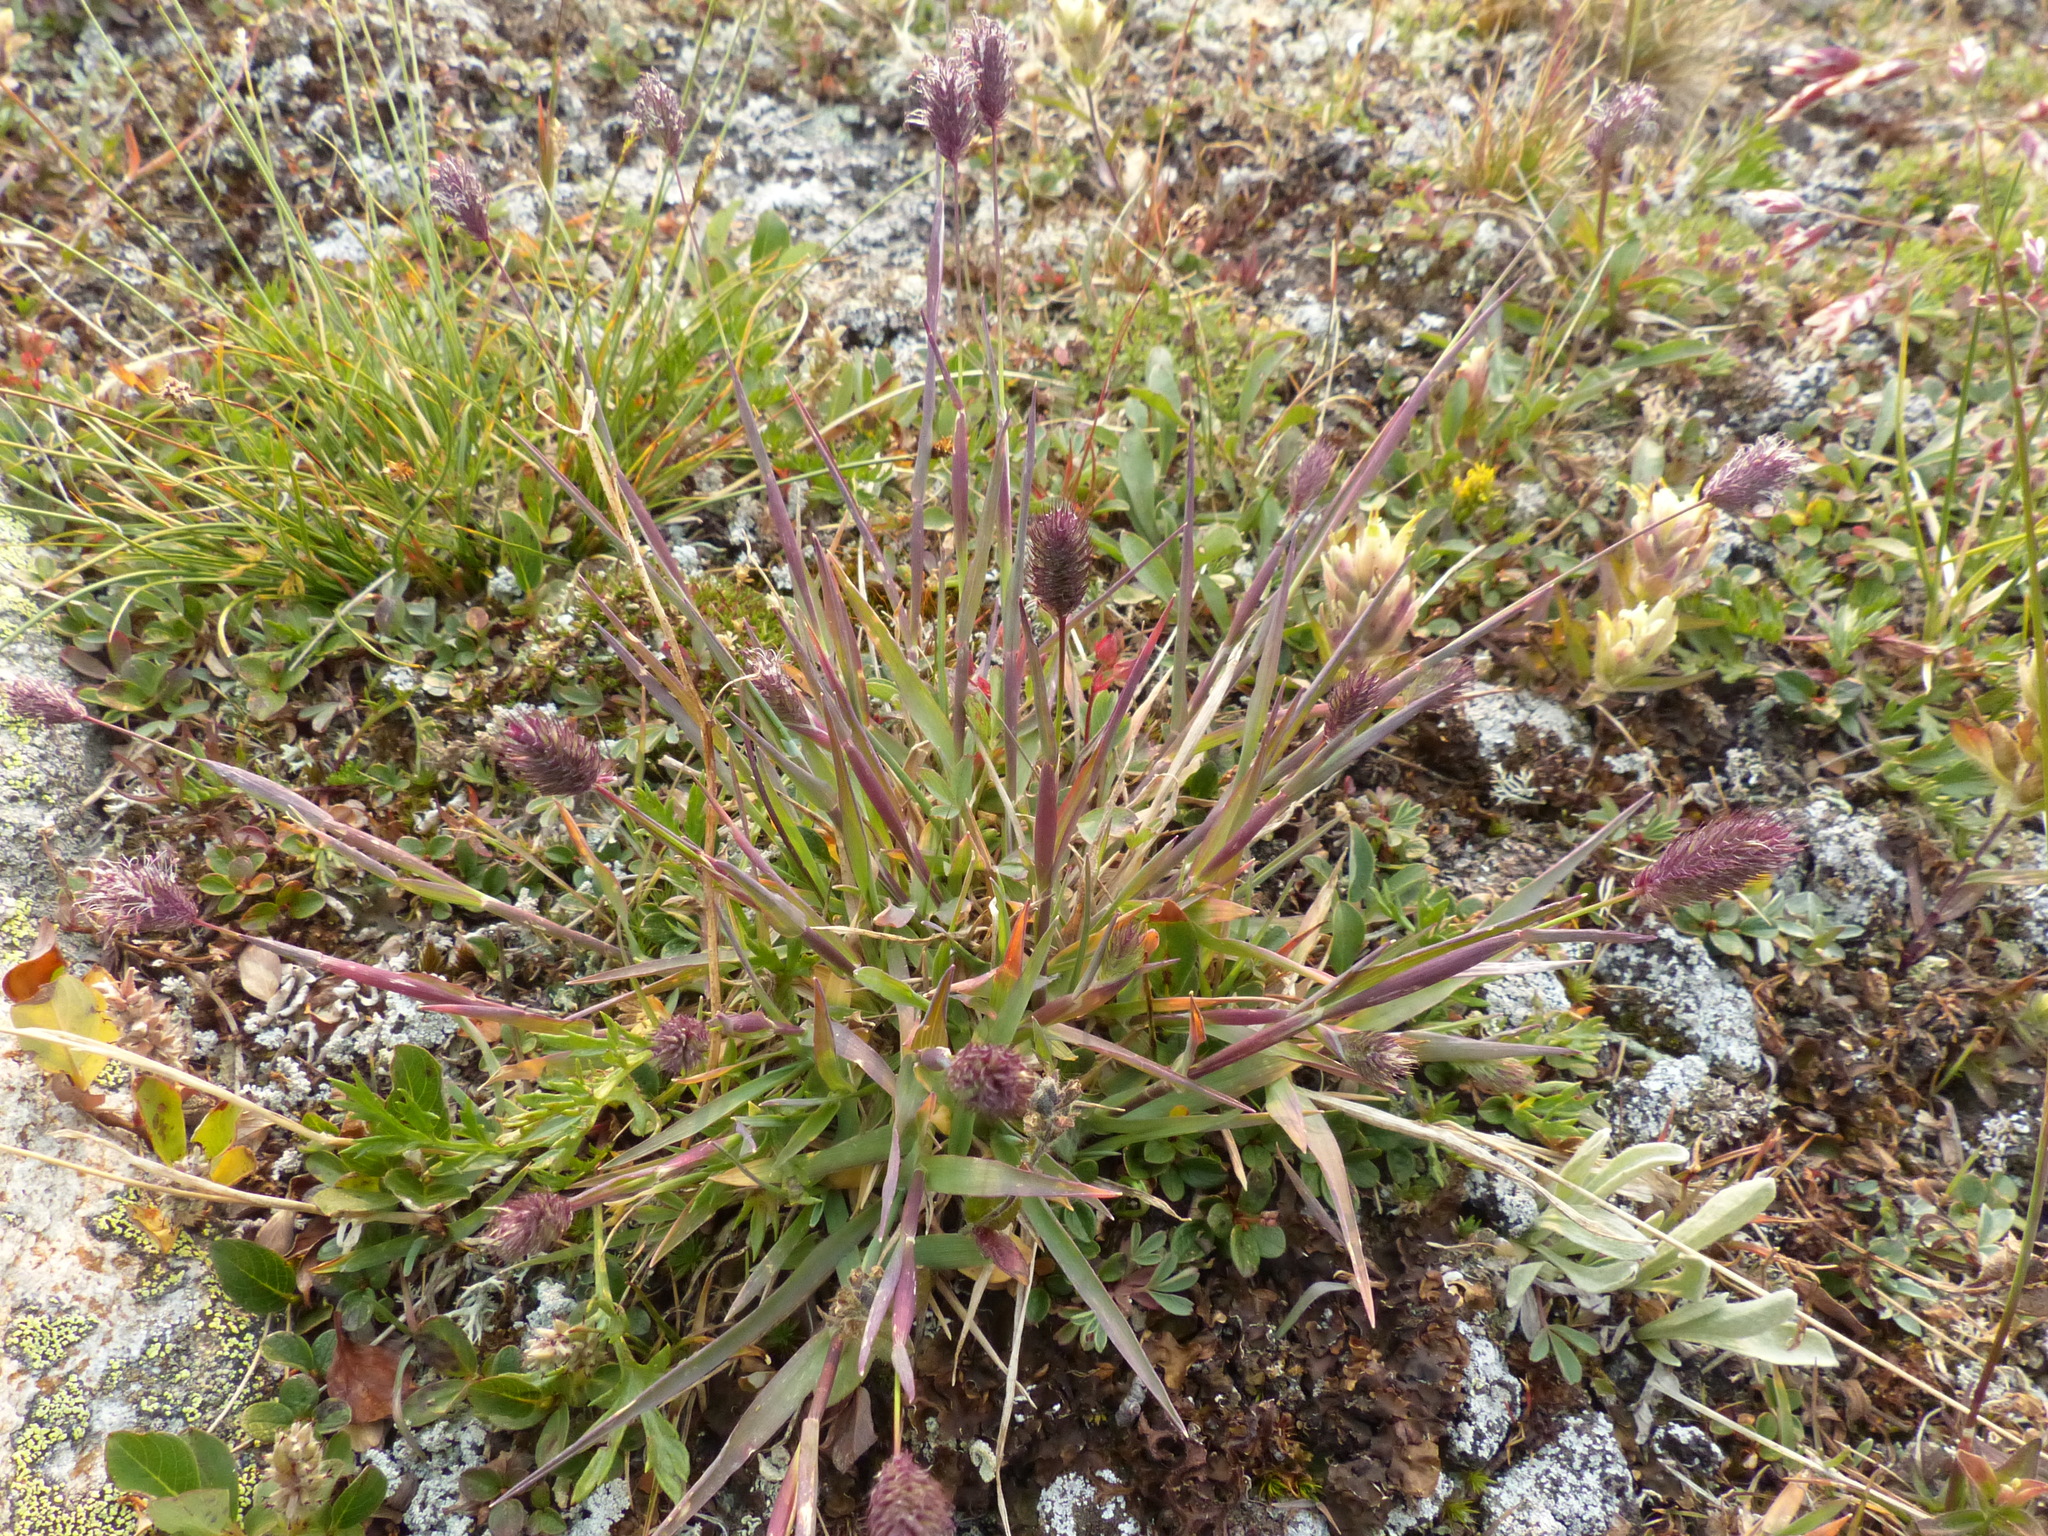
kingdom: Plantae
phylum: Tracheophyta
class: Liliopsida
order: Poales
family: Poaceae
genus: Phleum
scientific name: Phleum alpinum
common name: Alpine cat's-tail
